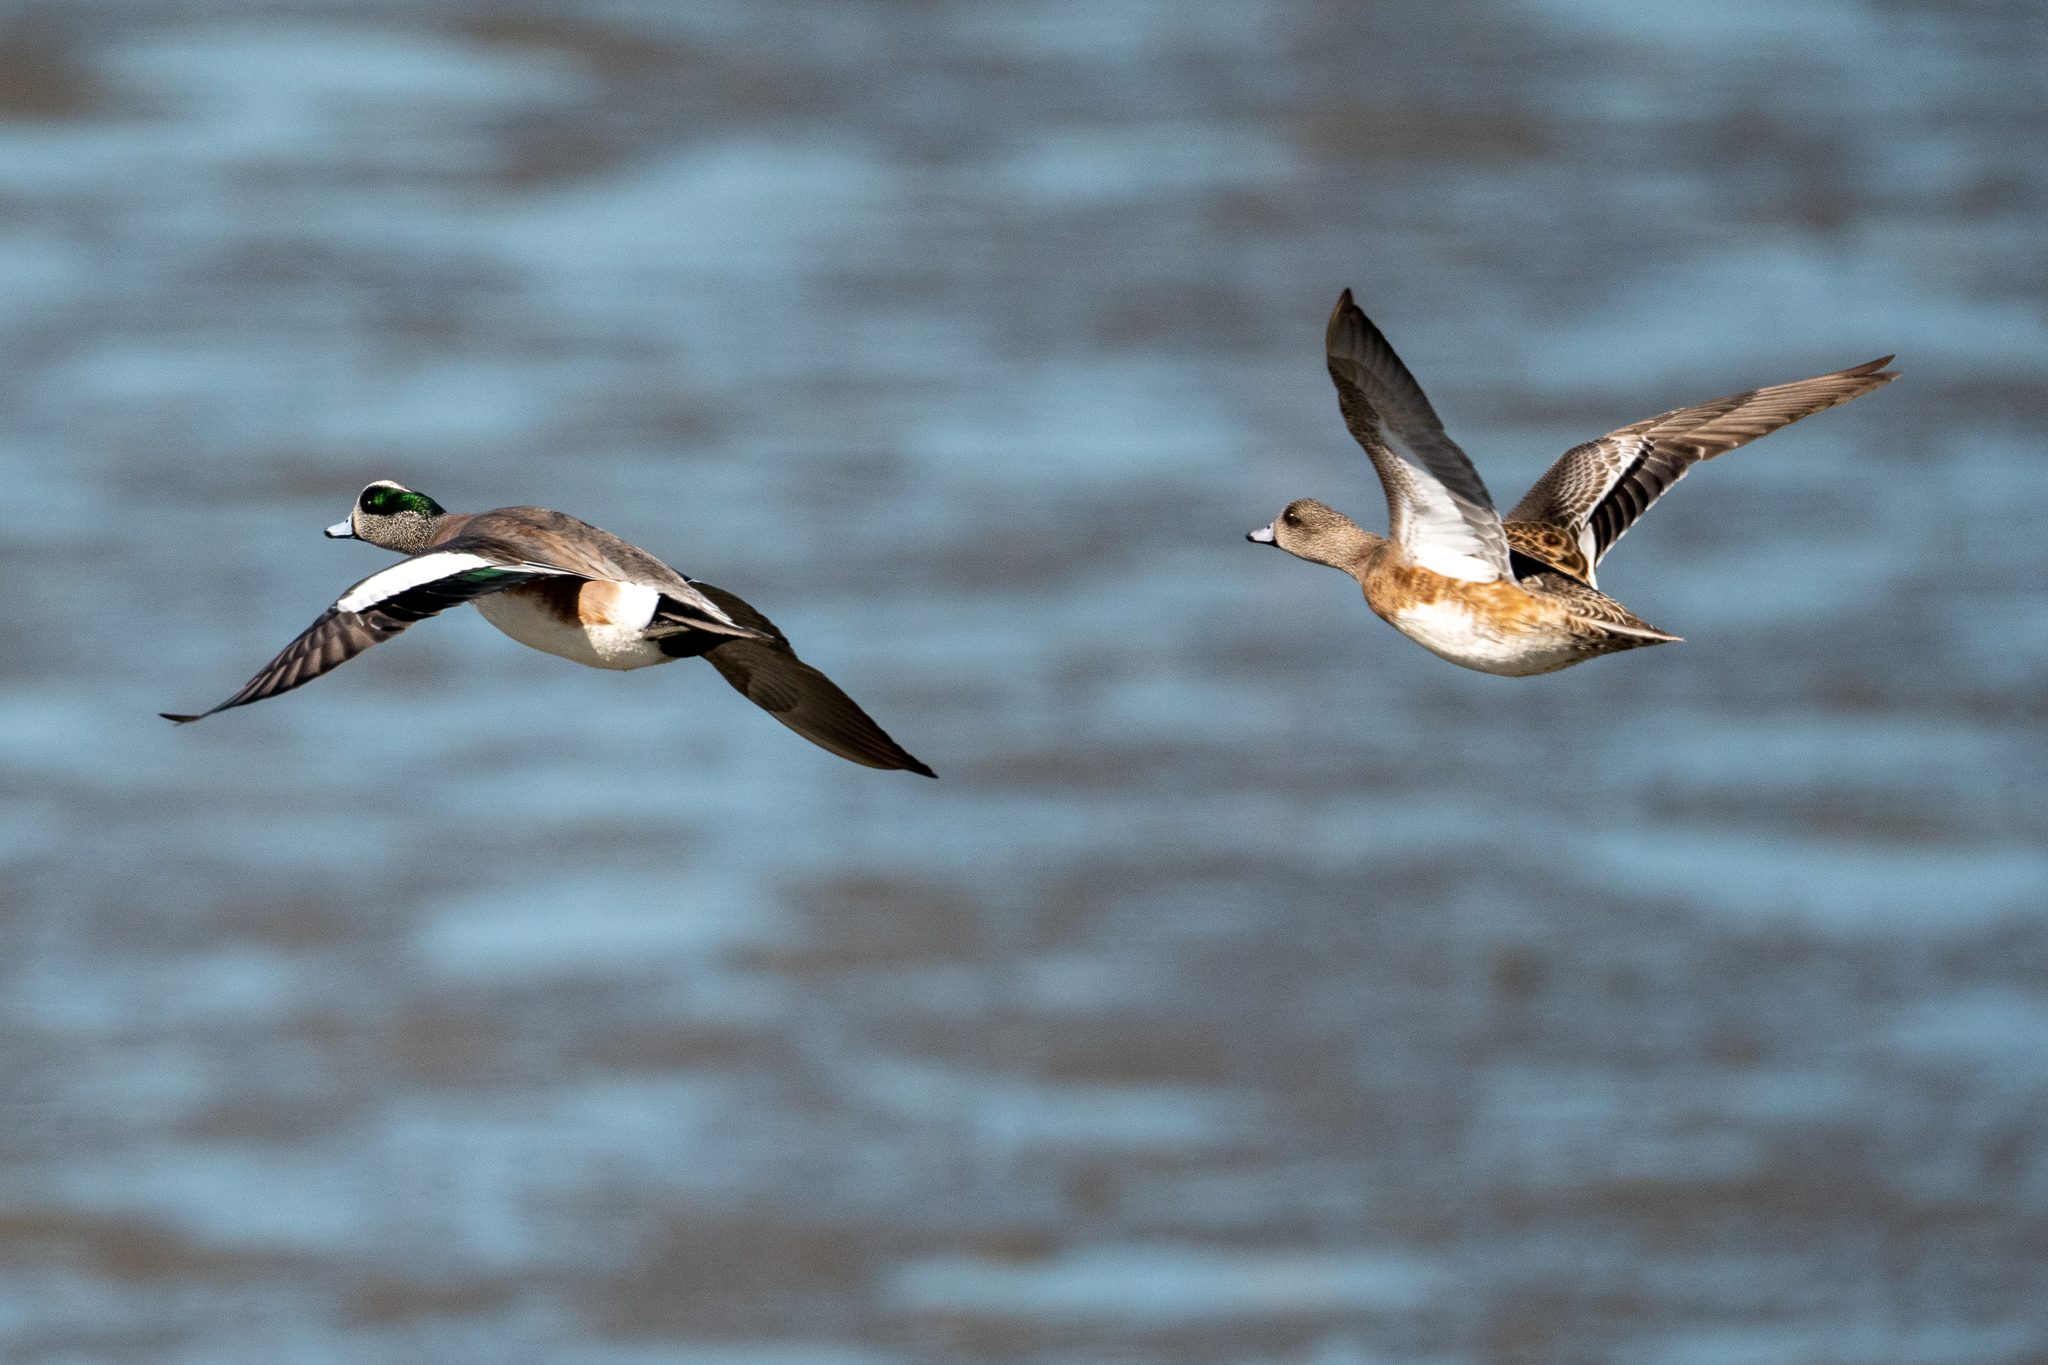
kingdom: Animalia
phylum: Chordata
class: Aves
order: Anseriformes
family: Anatidae
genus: Mareca
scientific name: Mareca americana
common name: American wigeon
